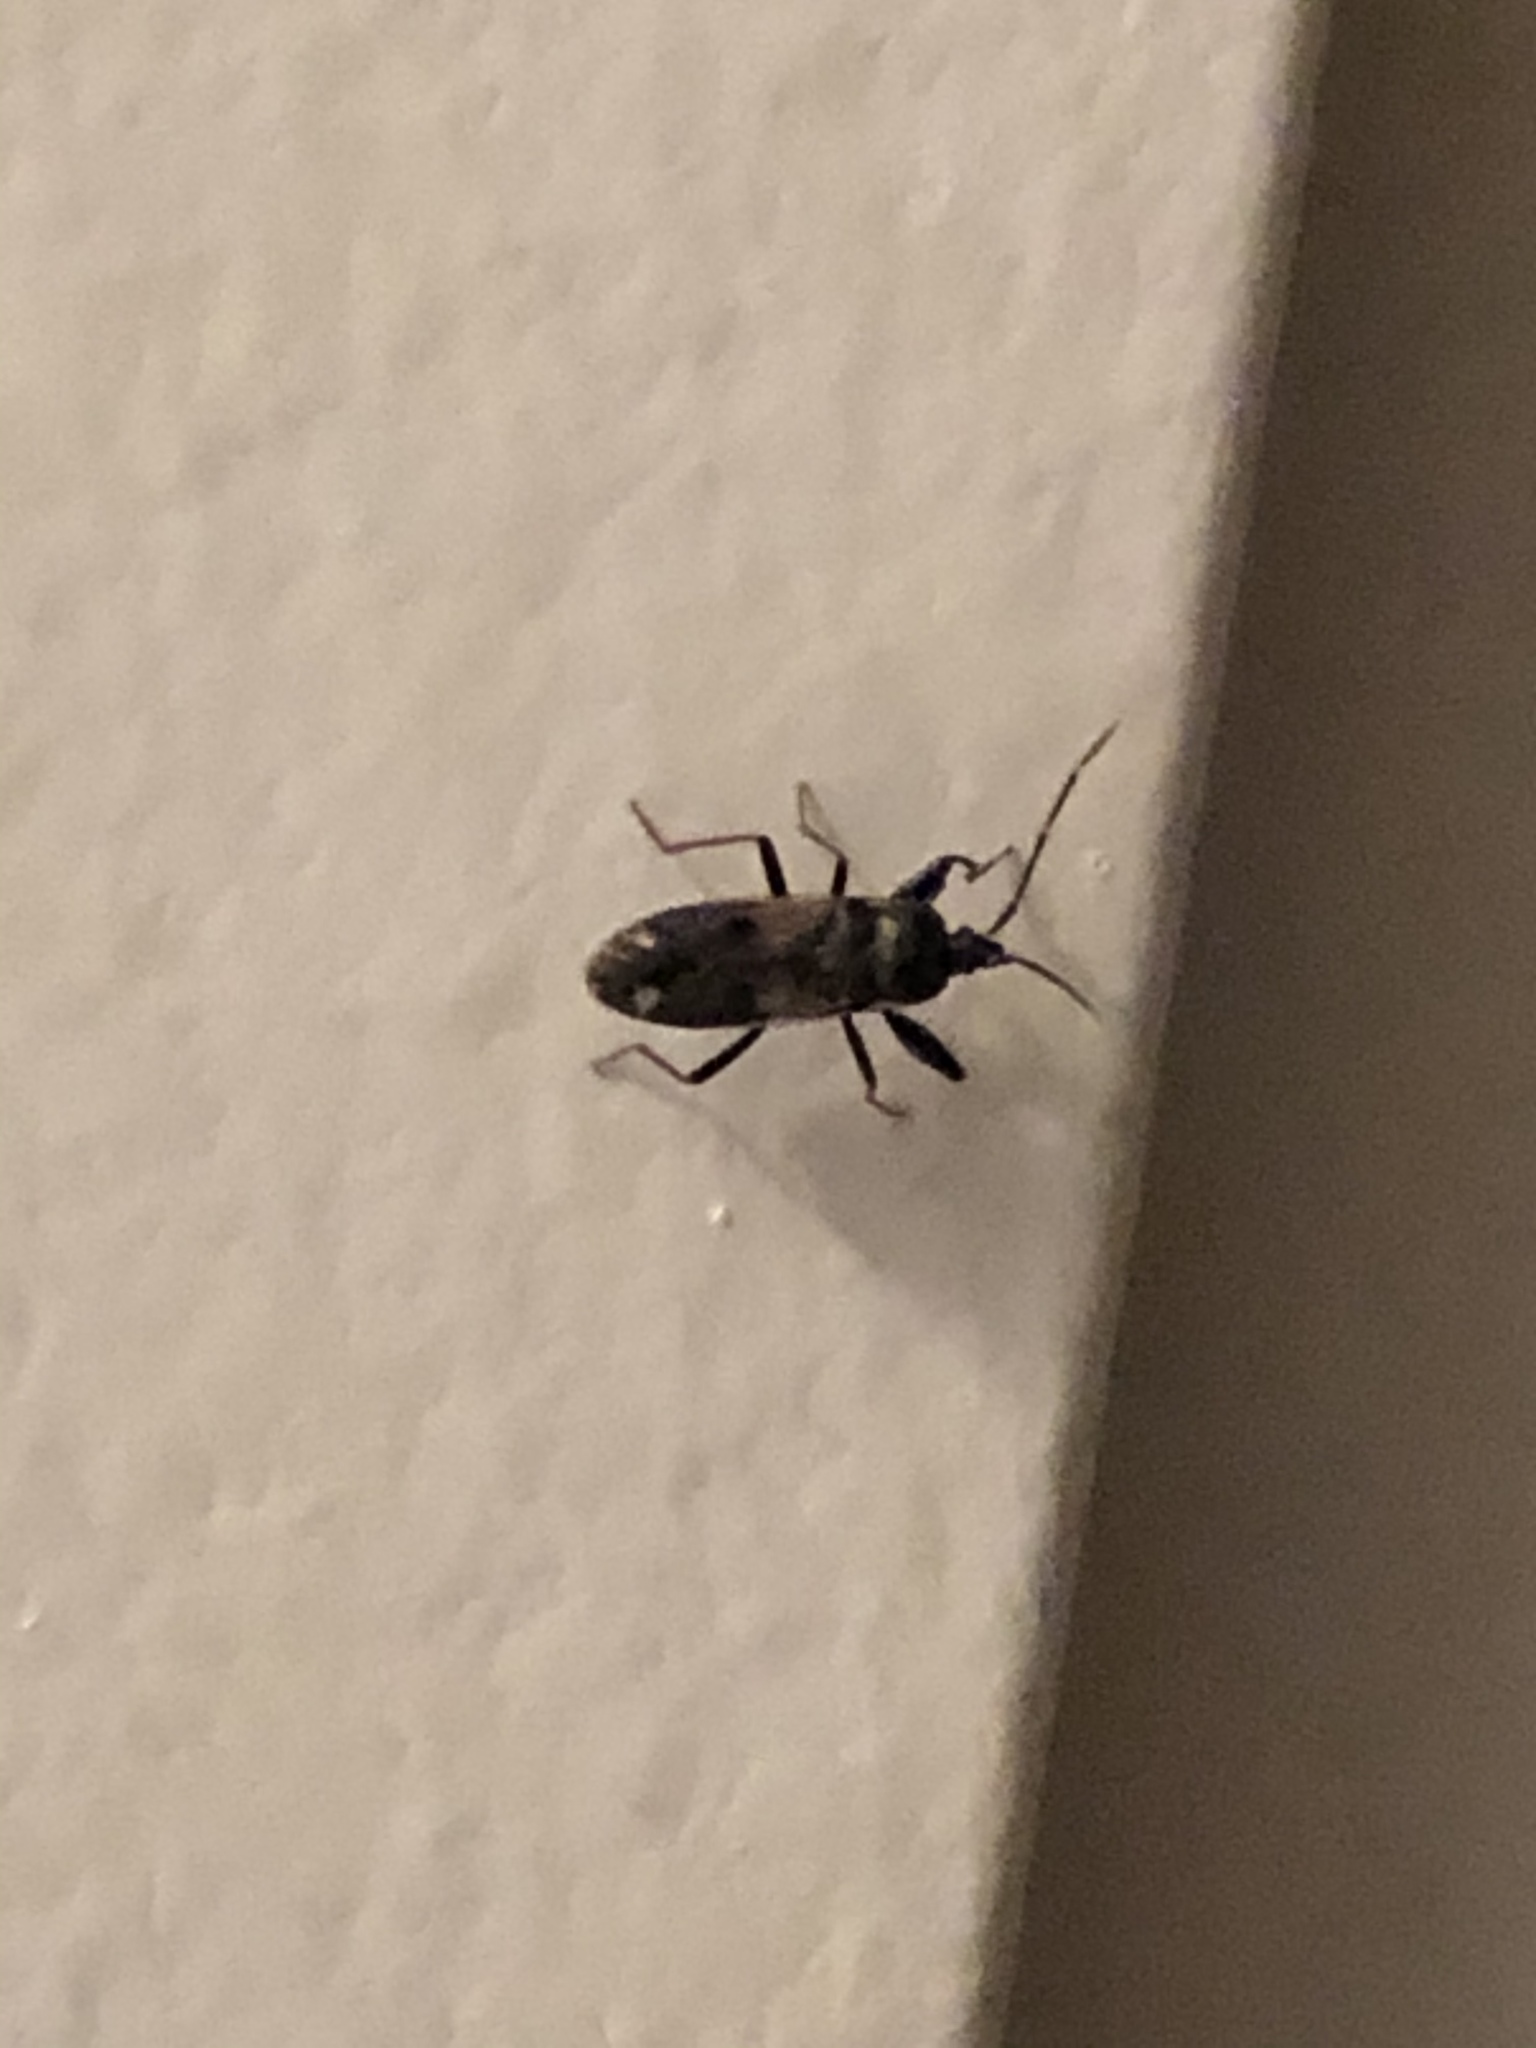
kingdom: Animalia
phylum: Arthropoda
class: Insecta
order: Hemiptera
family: Rhyparochromidae
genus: Eremocoris
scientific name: Eremocoris fenestratus
